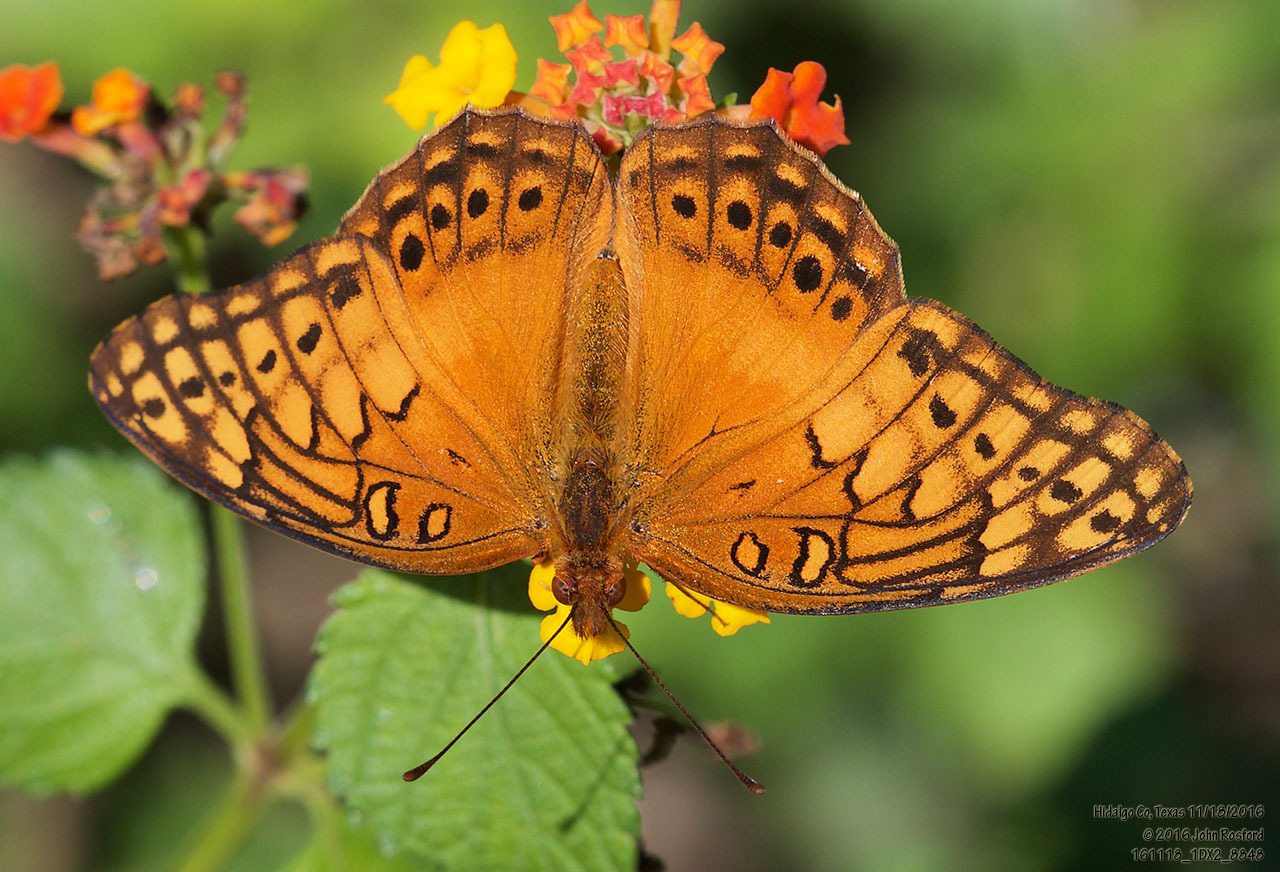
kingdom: Animalia
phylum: Arthropoda
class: Insecta
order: Lepidoptera
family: Nymphalidae
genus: Euptoieta
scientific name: Euptoieta hegesia
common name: Mexican fritillary
